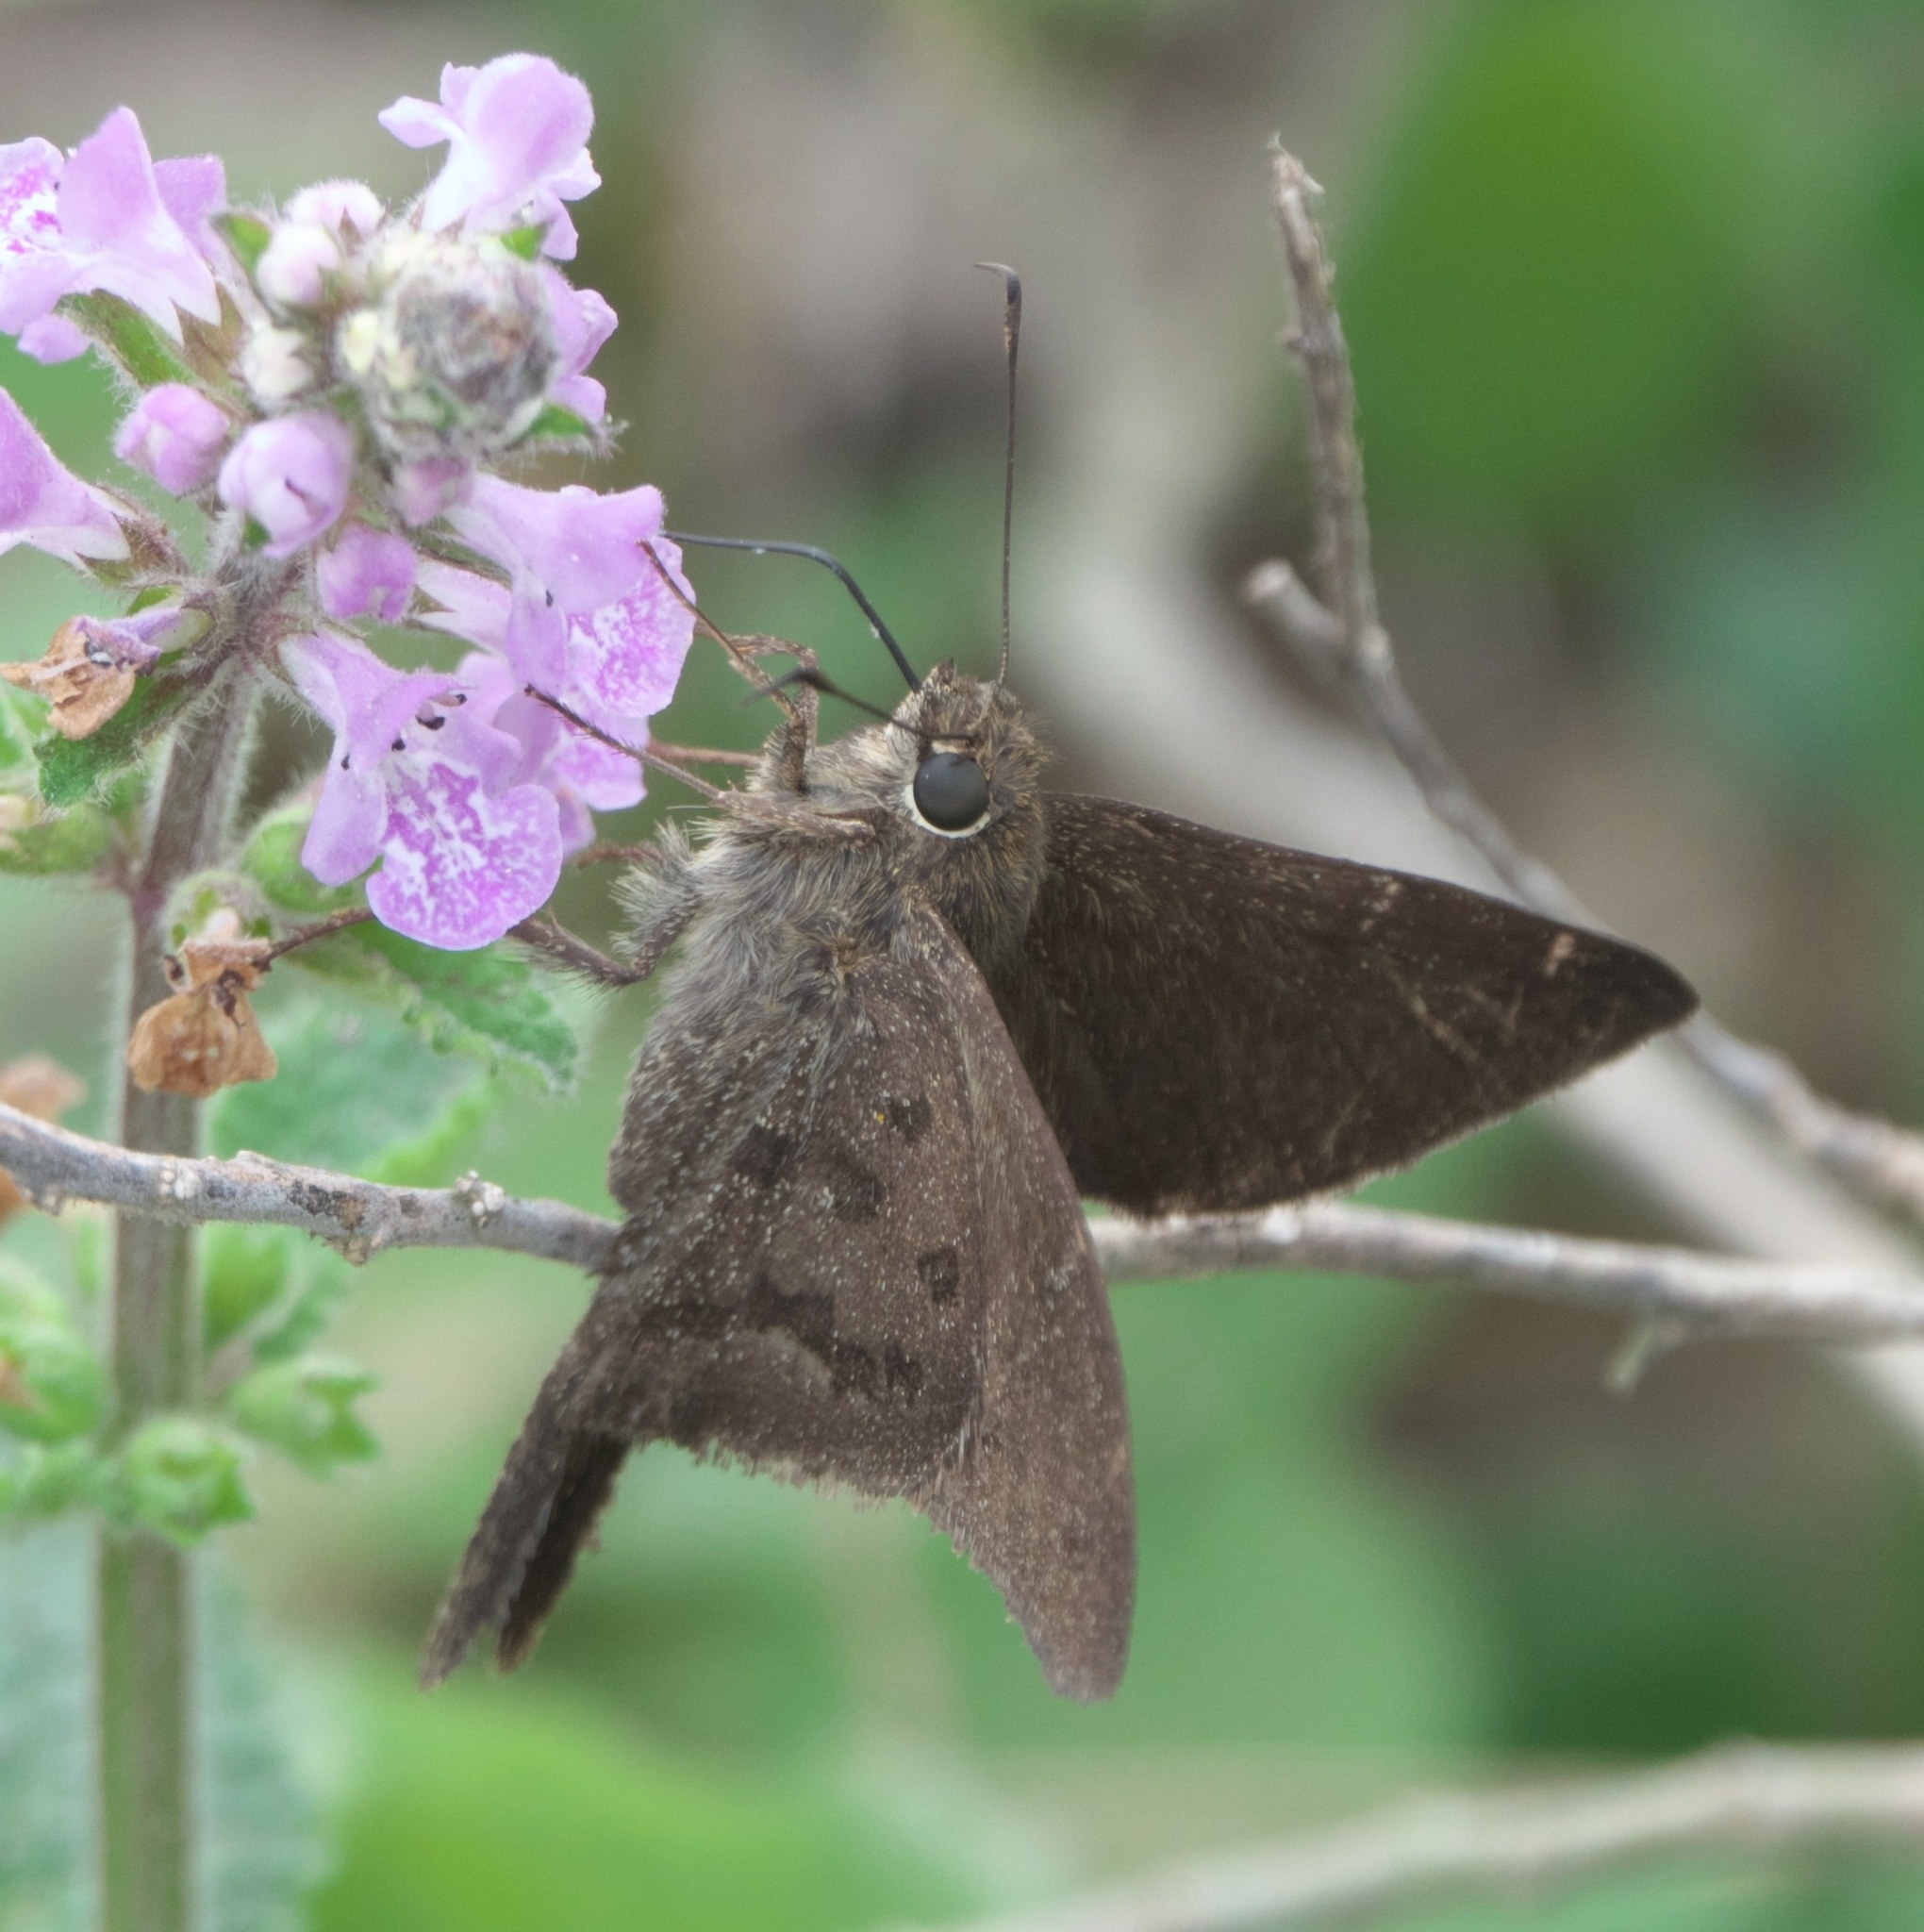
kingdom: Animalia
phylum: Arthropoda
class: Insecta
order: Lepidoptera
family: Hesperiidae
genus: Urbanus
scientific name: Urbanus procne
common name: Brown longtail
